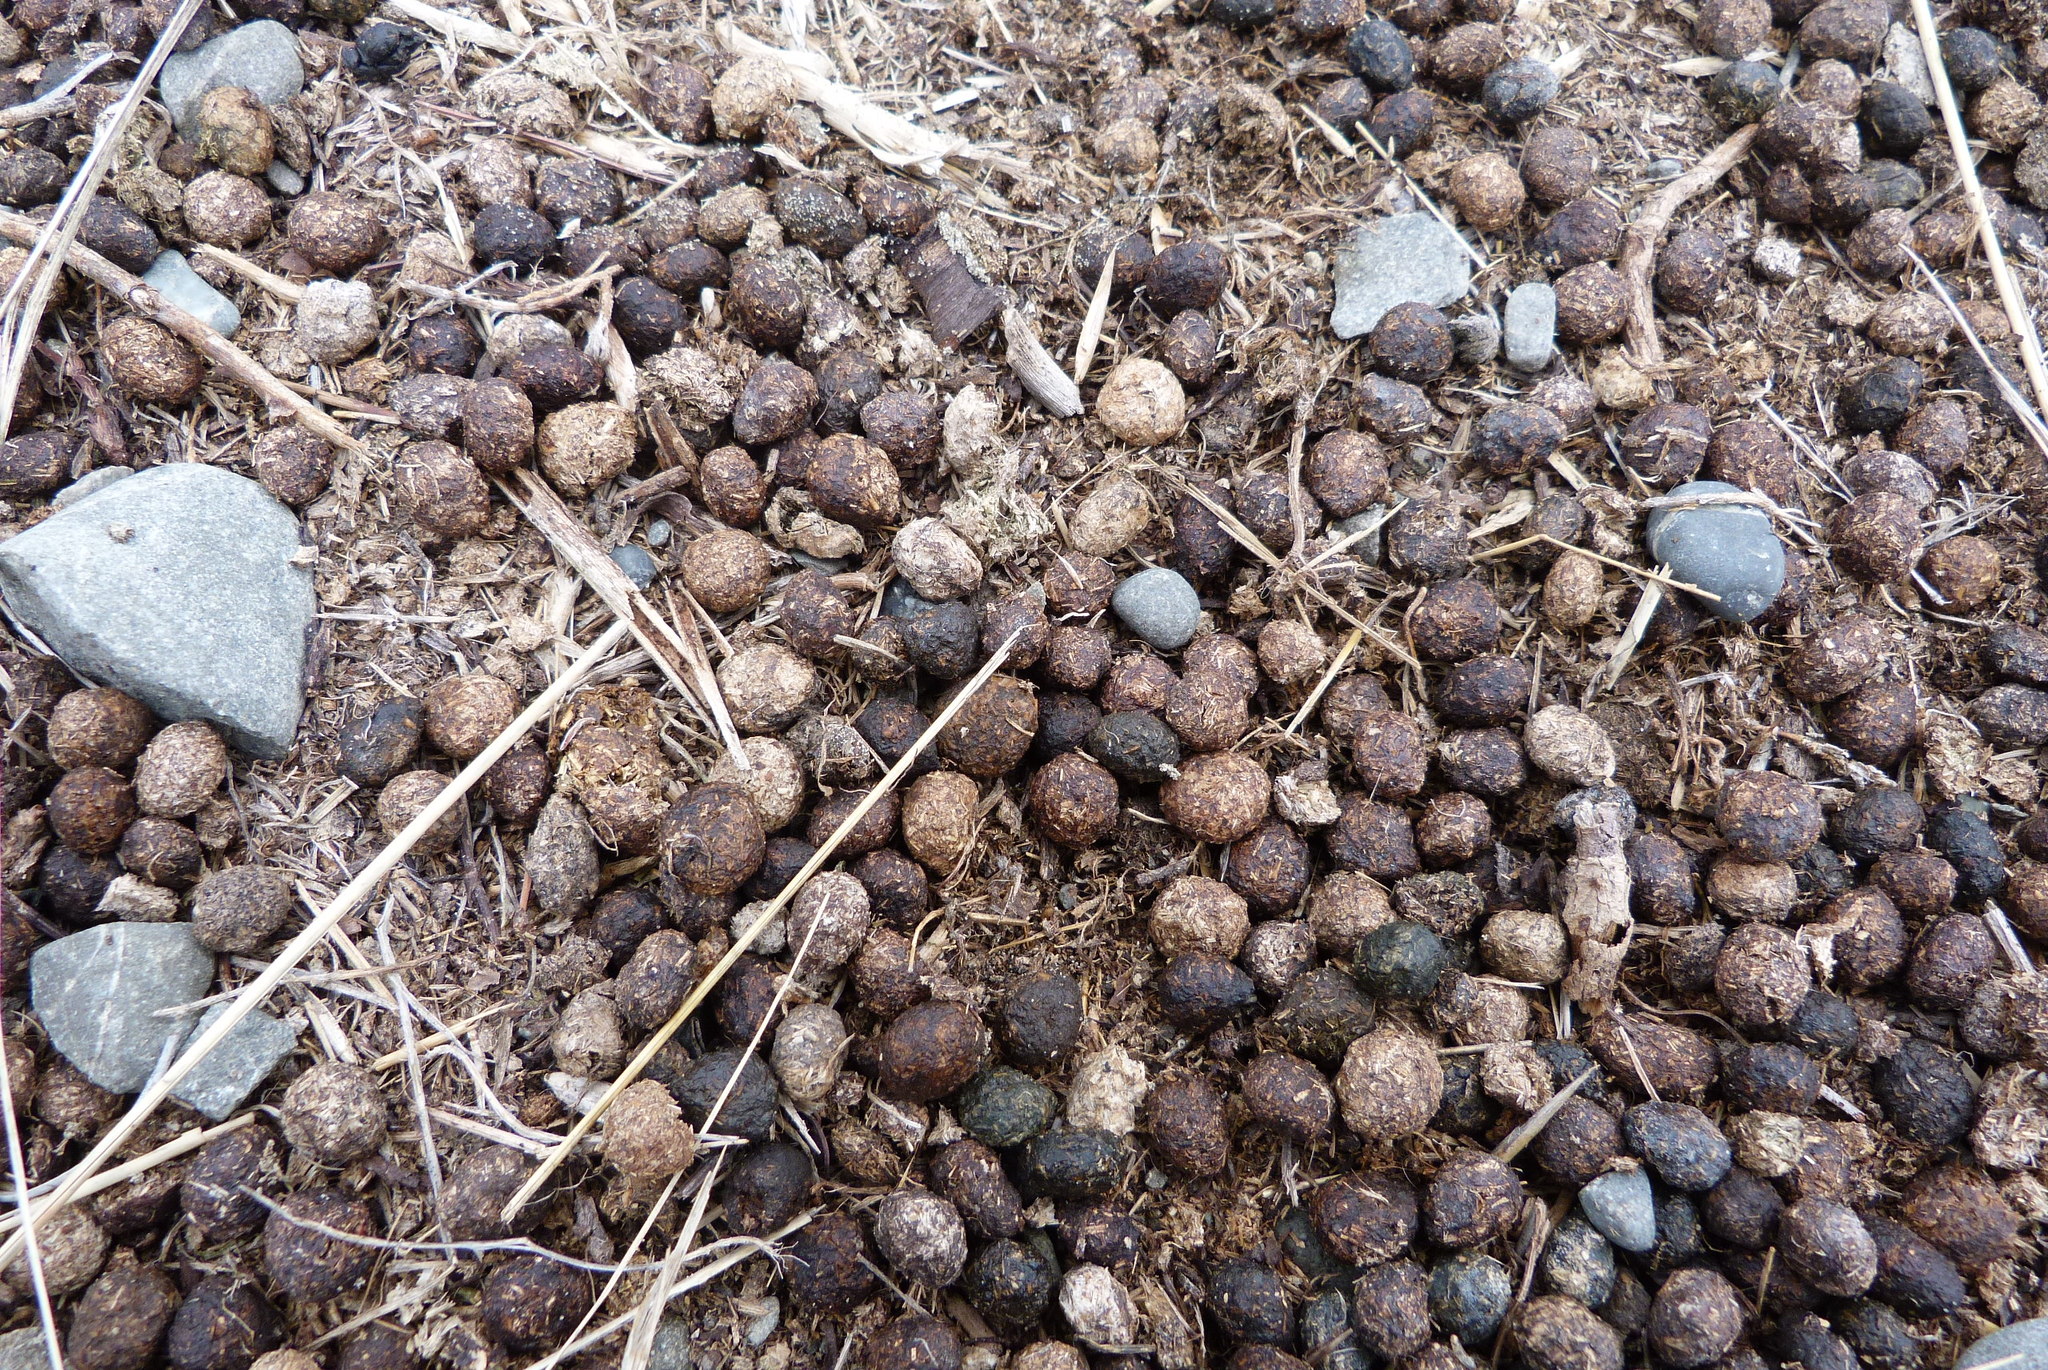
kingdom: Animalia
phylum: Chordata
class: Mammalia
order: Lagomorpha
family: Leporidae
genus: Oryctolagus
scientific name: Oryctolagus cuniculus
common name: European rabbit
